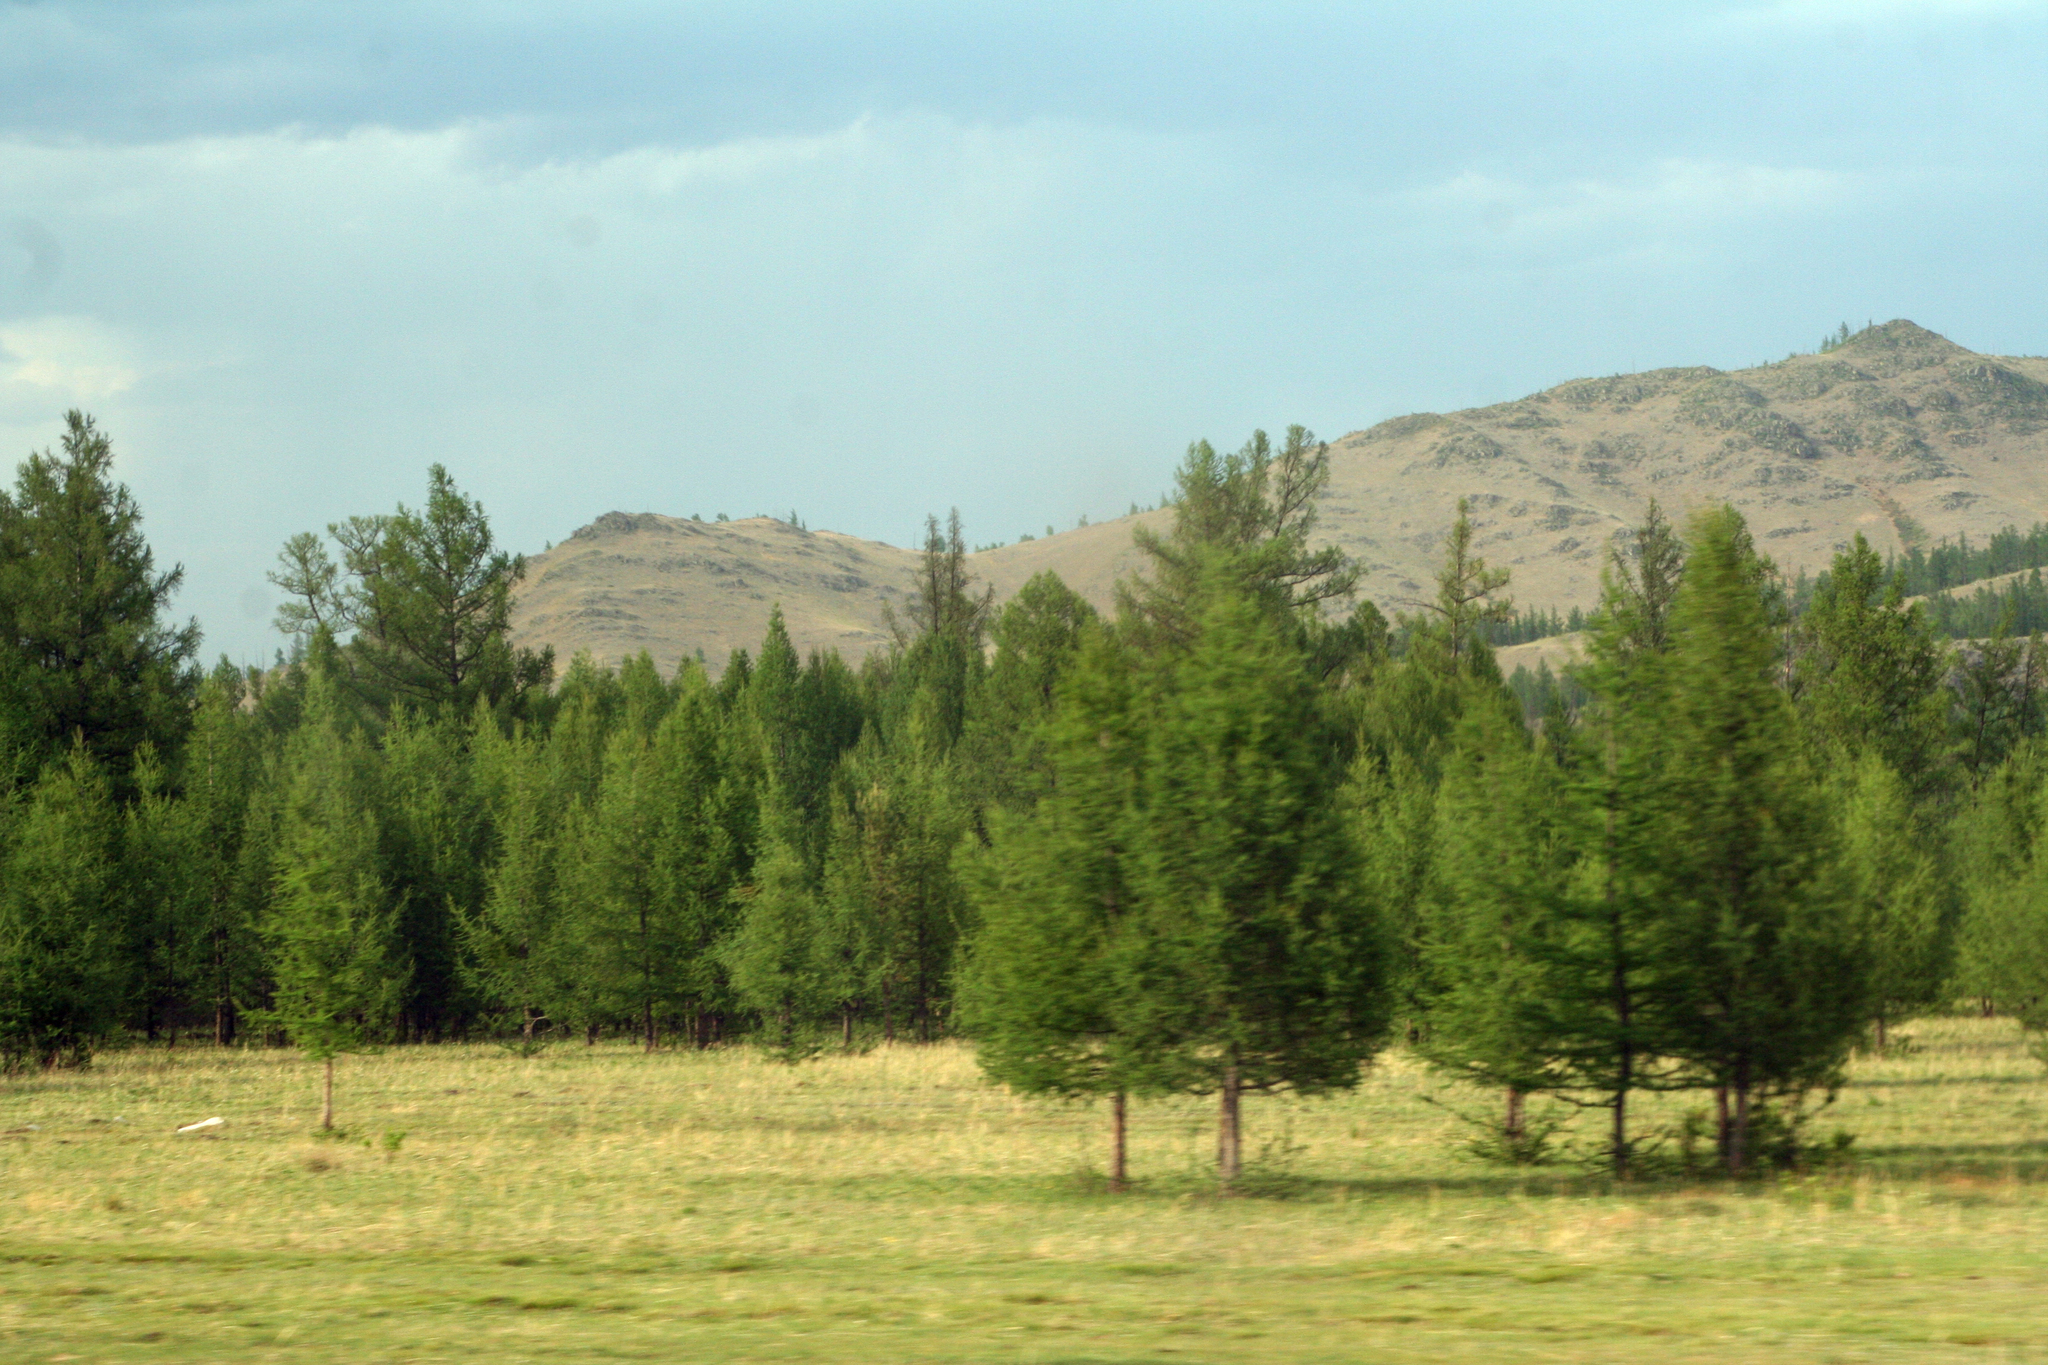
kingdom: Plantae
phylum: Tracheophyta
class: Pinopsida
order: Pinales
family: Pinaceae
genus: Larix
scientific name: Larix sibirica
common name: Siberian larch
